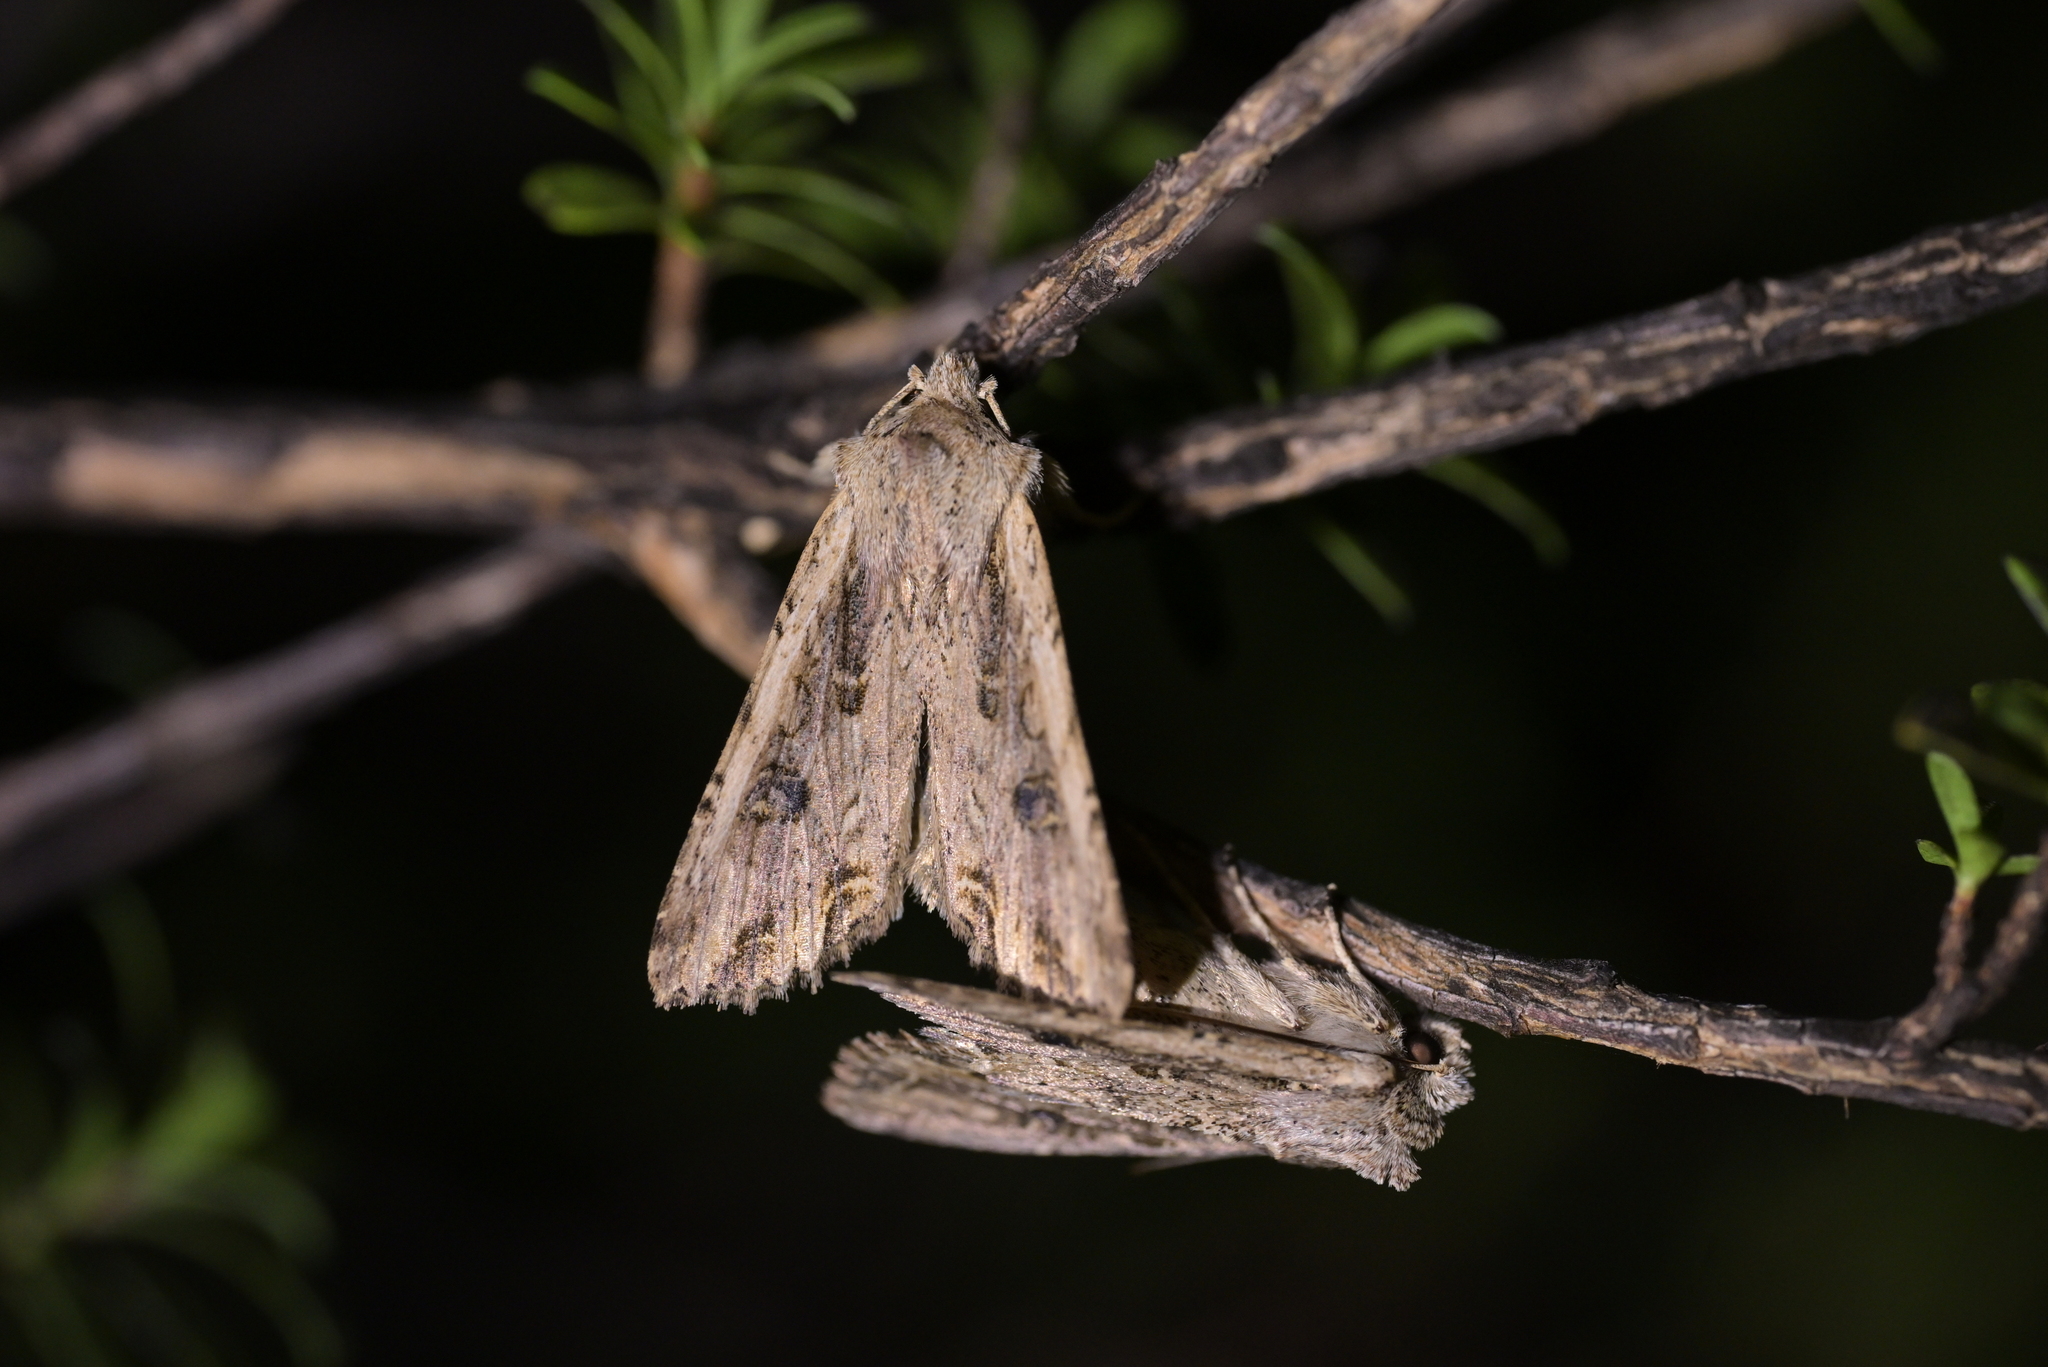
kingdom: Animalia
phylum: Arthropoda
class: Insecta
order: Lepidoptera
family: Noctuidae
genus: Ichneutica
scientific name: Ichneutica lignana
